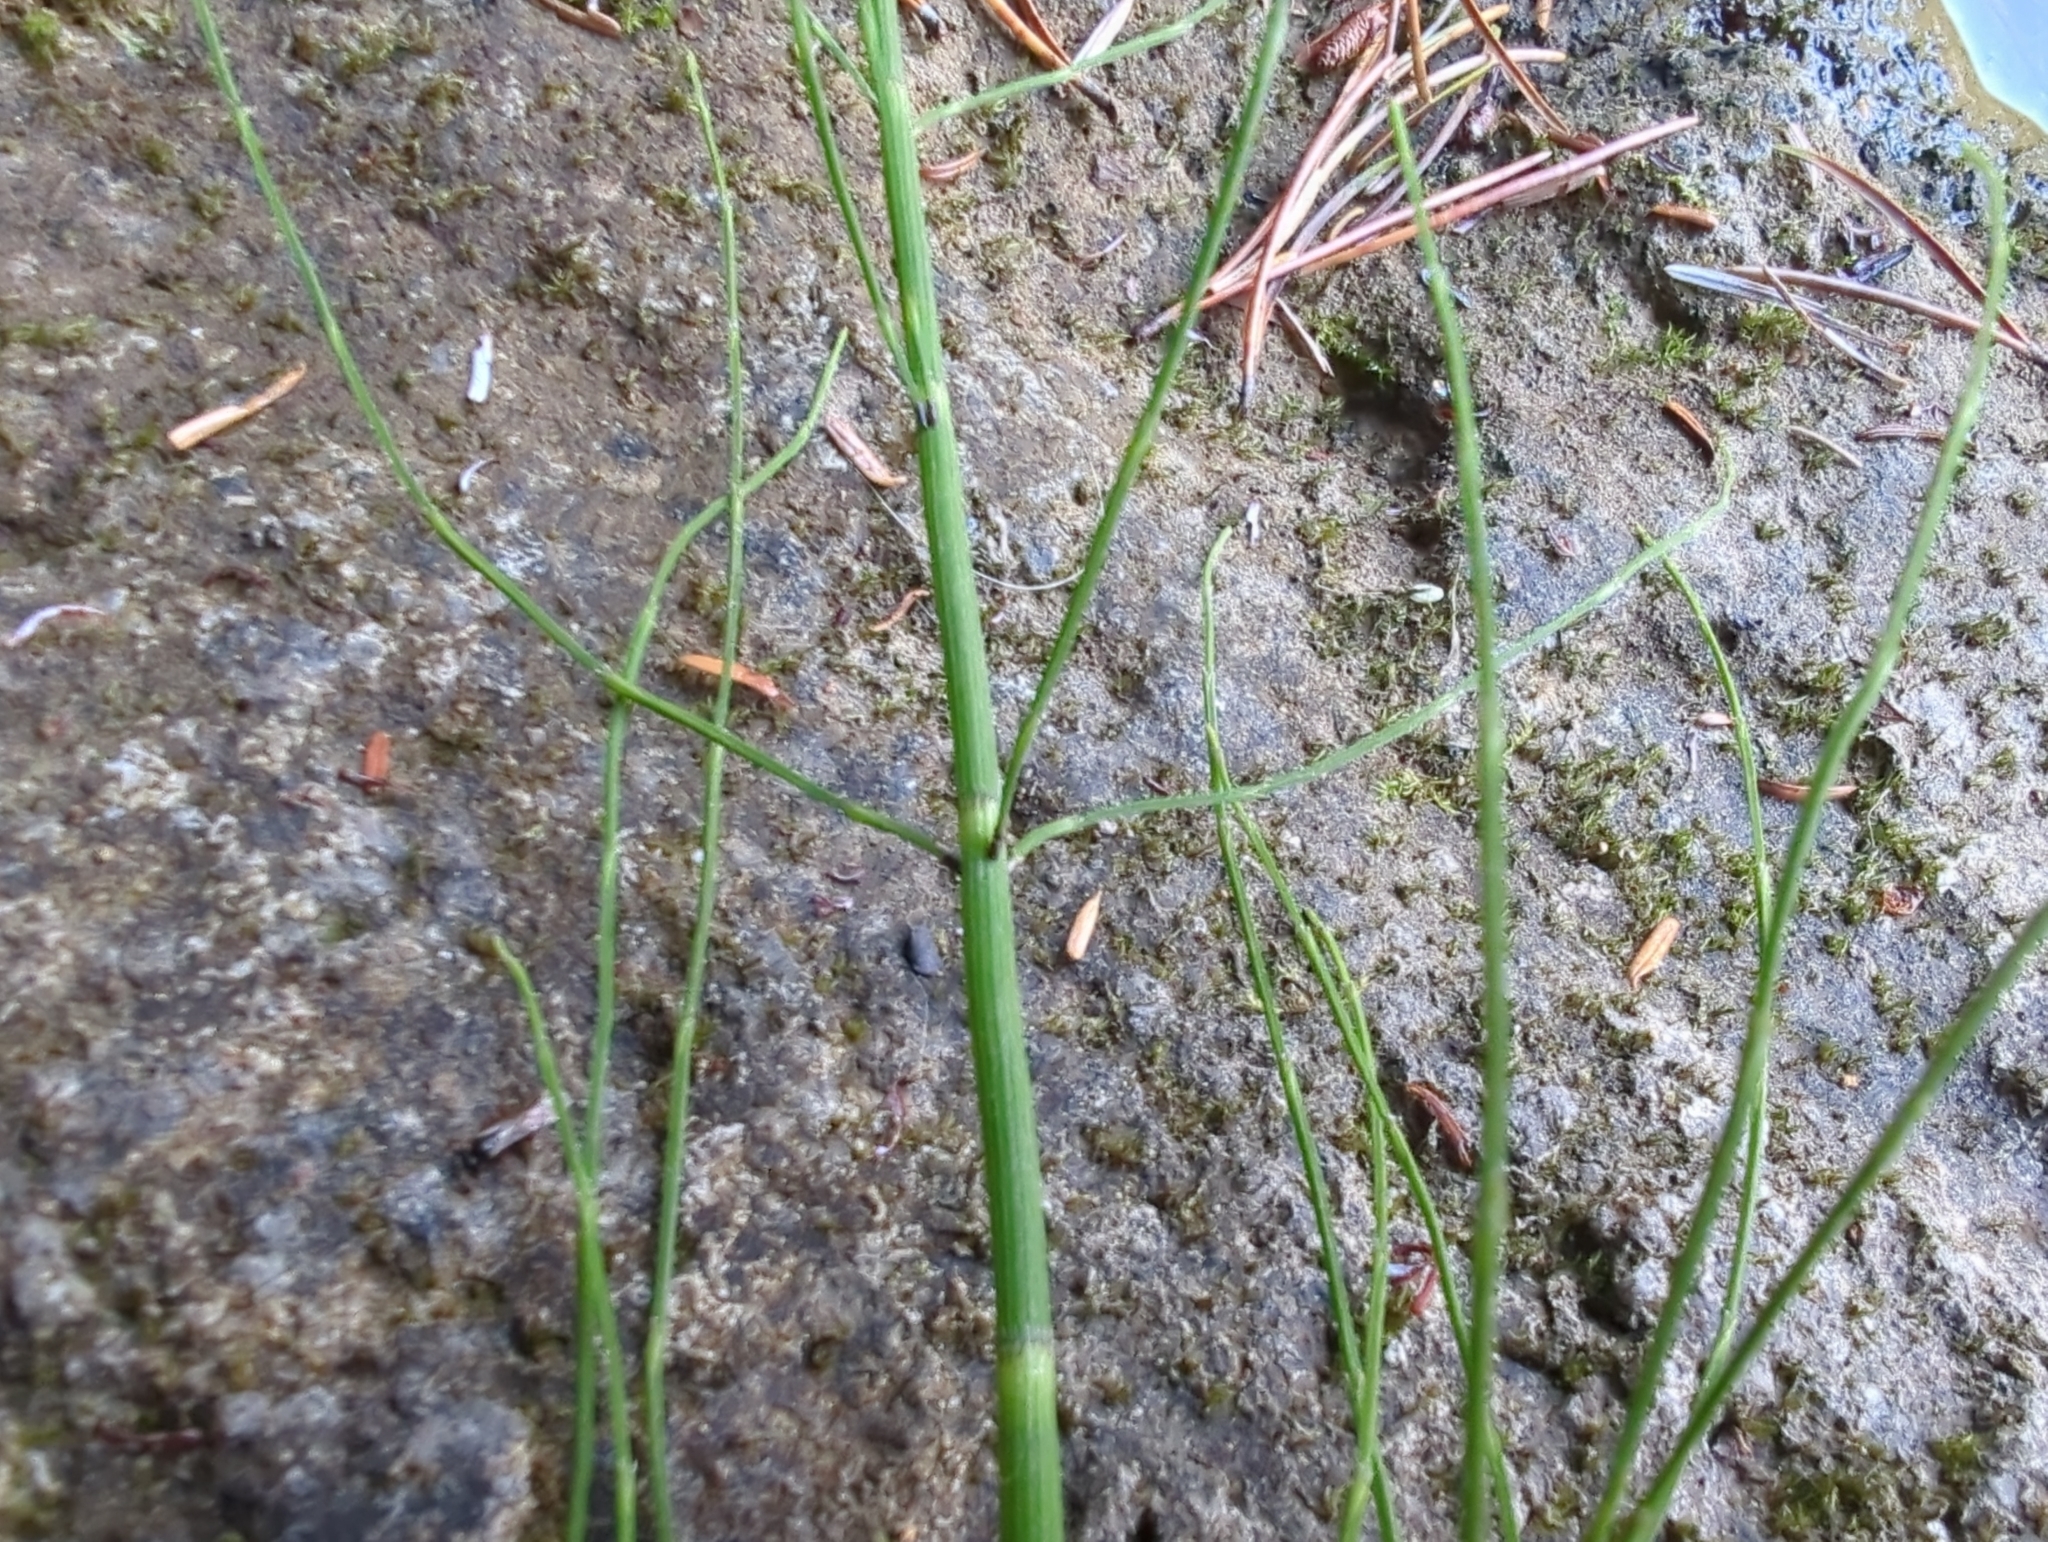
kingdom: Plantae
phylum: Tracheophyta
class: Polypodiopsida
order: Equisetales
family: Equisetaceae
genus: Equisetum
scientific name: Equisetum fluviatile
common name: Water horsetail
